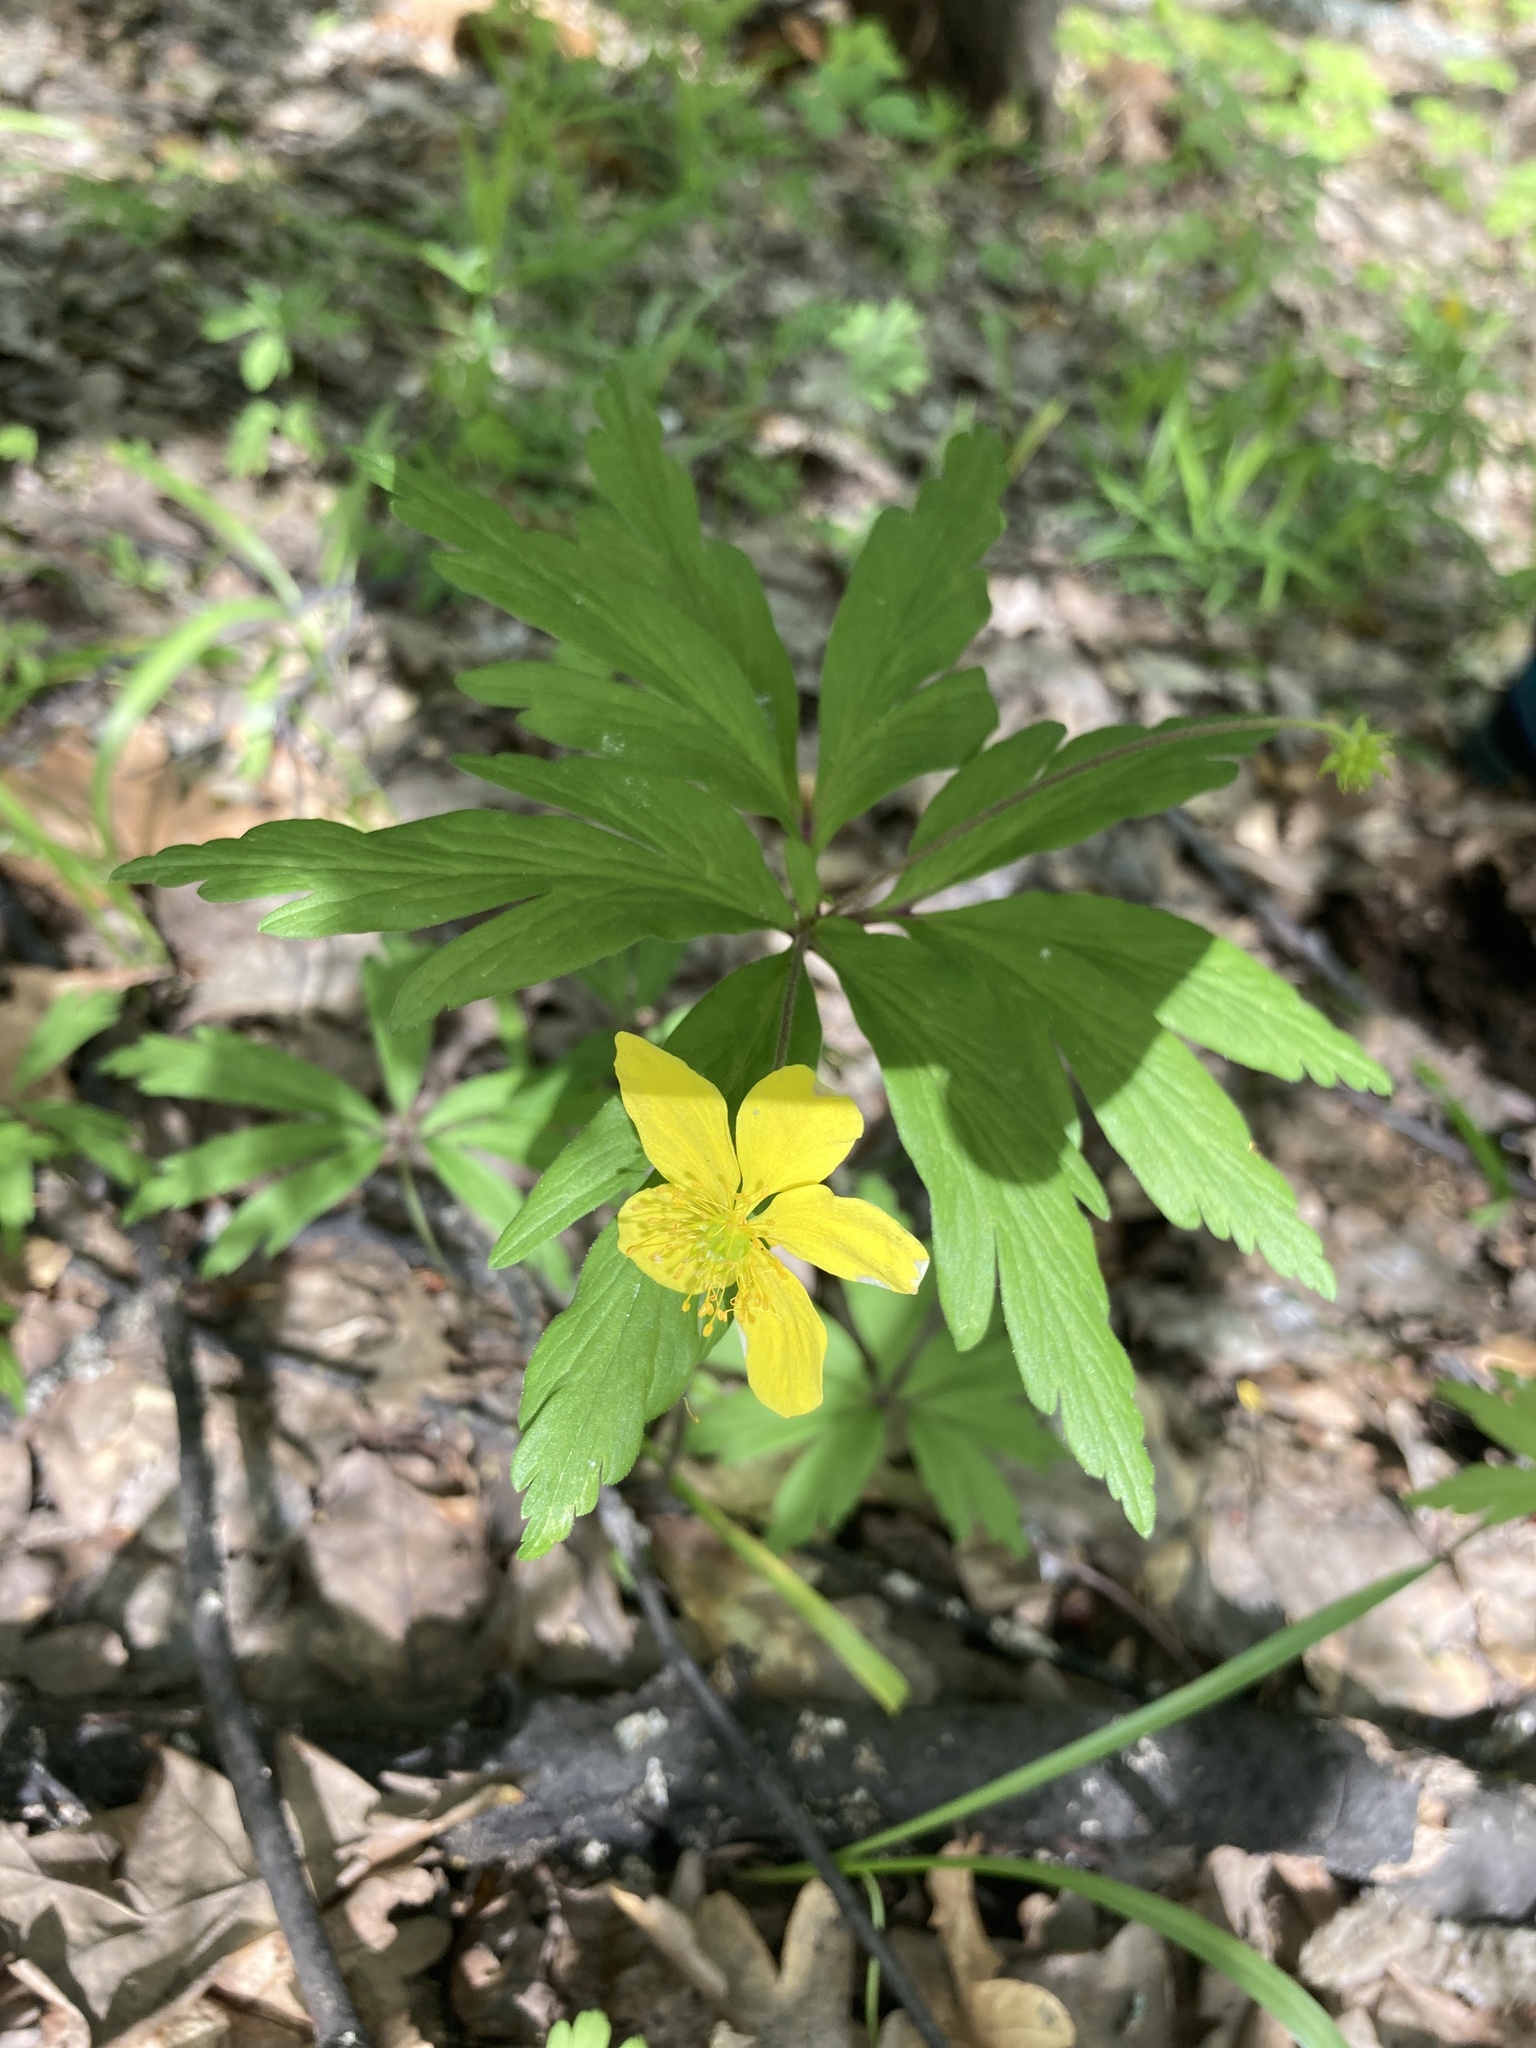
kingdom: Plantae
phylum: Tracheophyta
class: Magnoliopsida
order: Ranunculales
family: Ranunculaceae
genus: Anemone
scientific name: Anemone ranunculoides
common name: Yellow anemone
